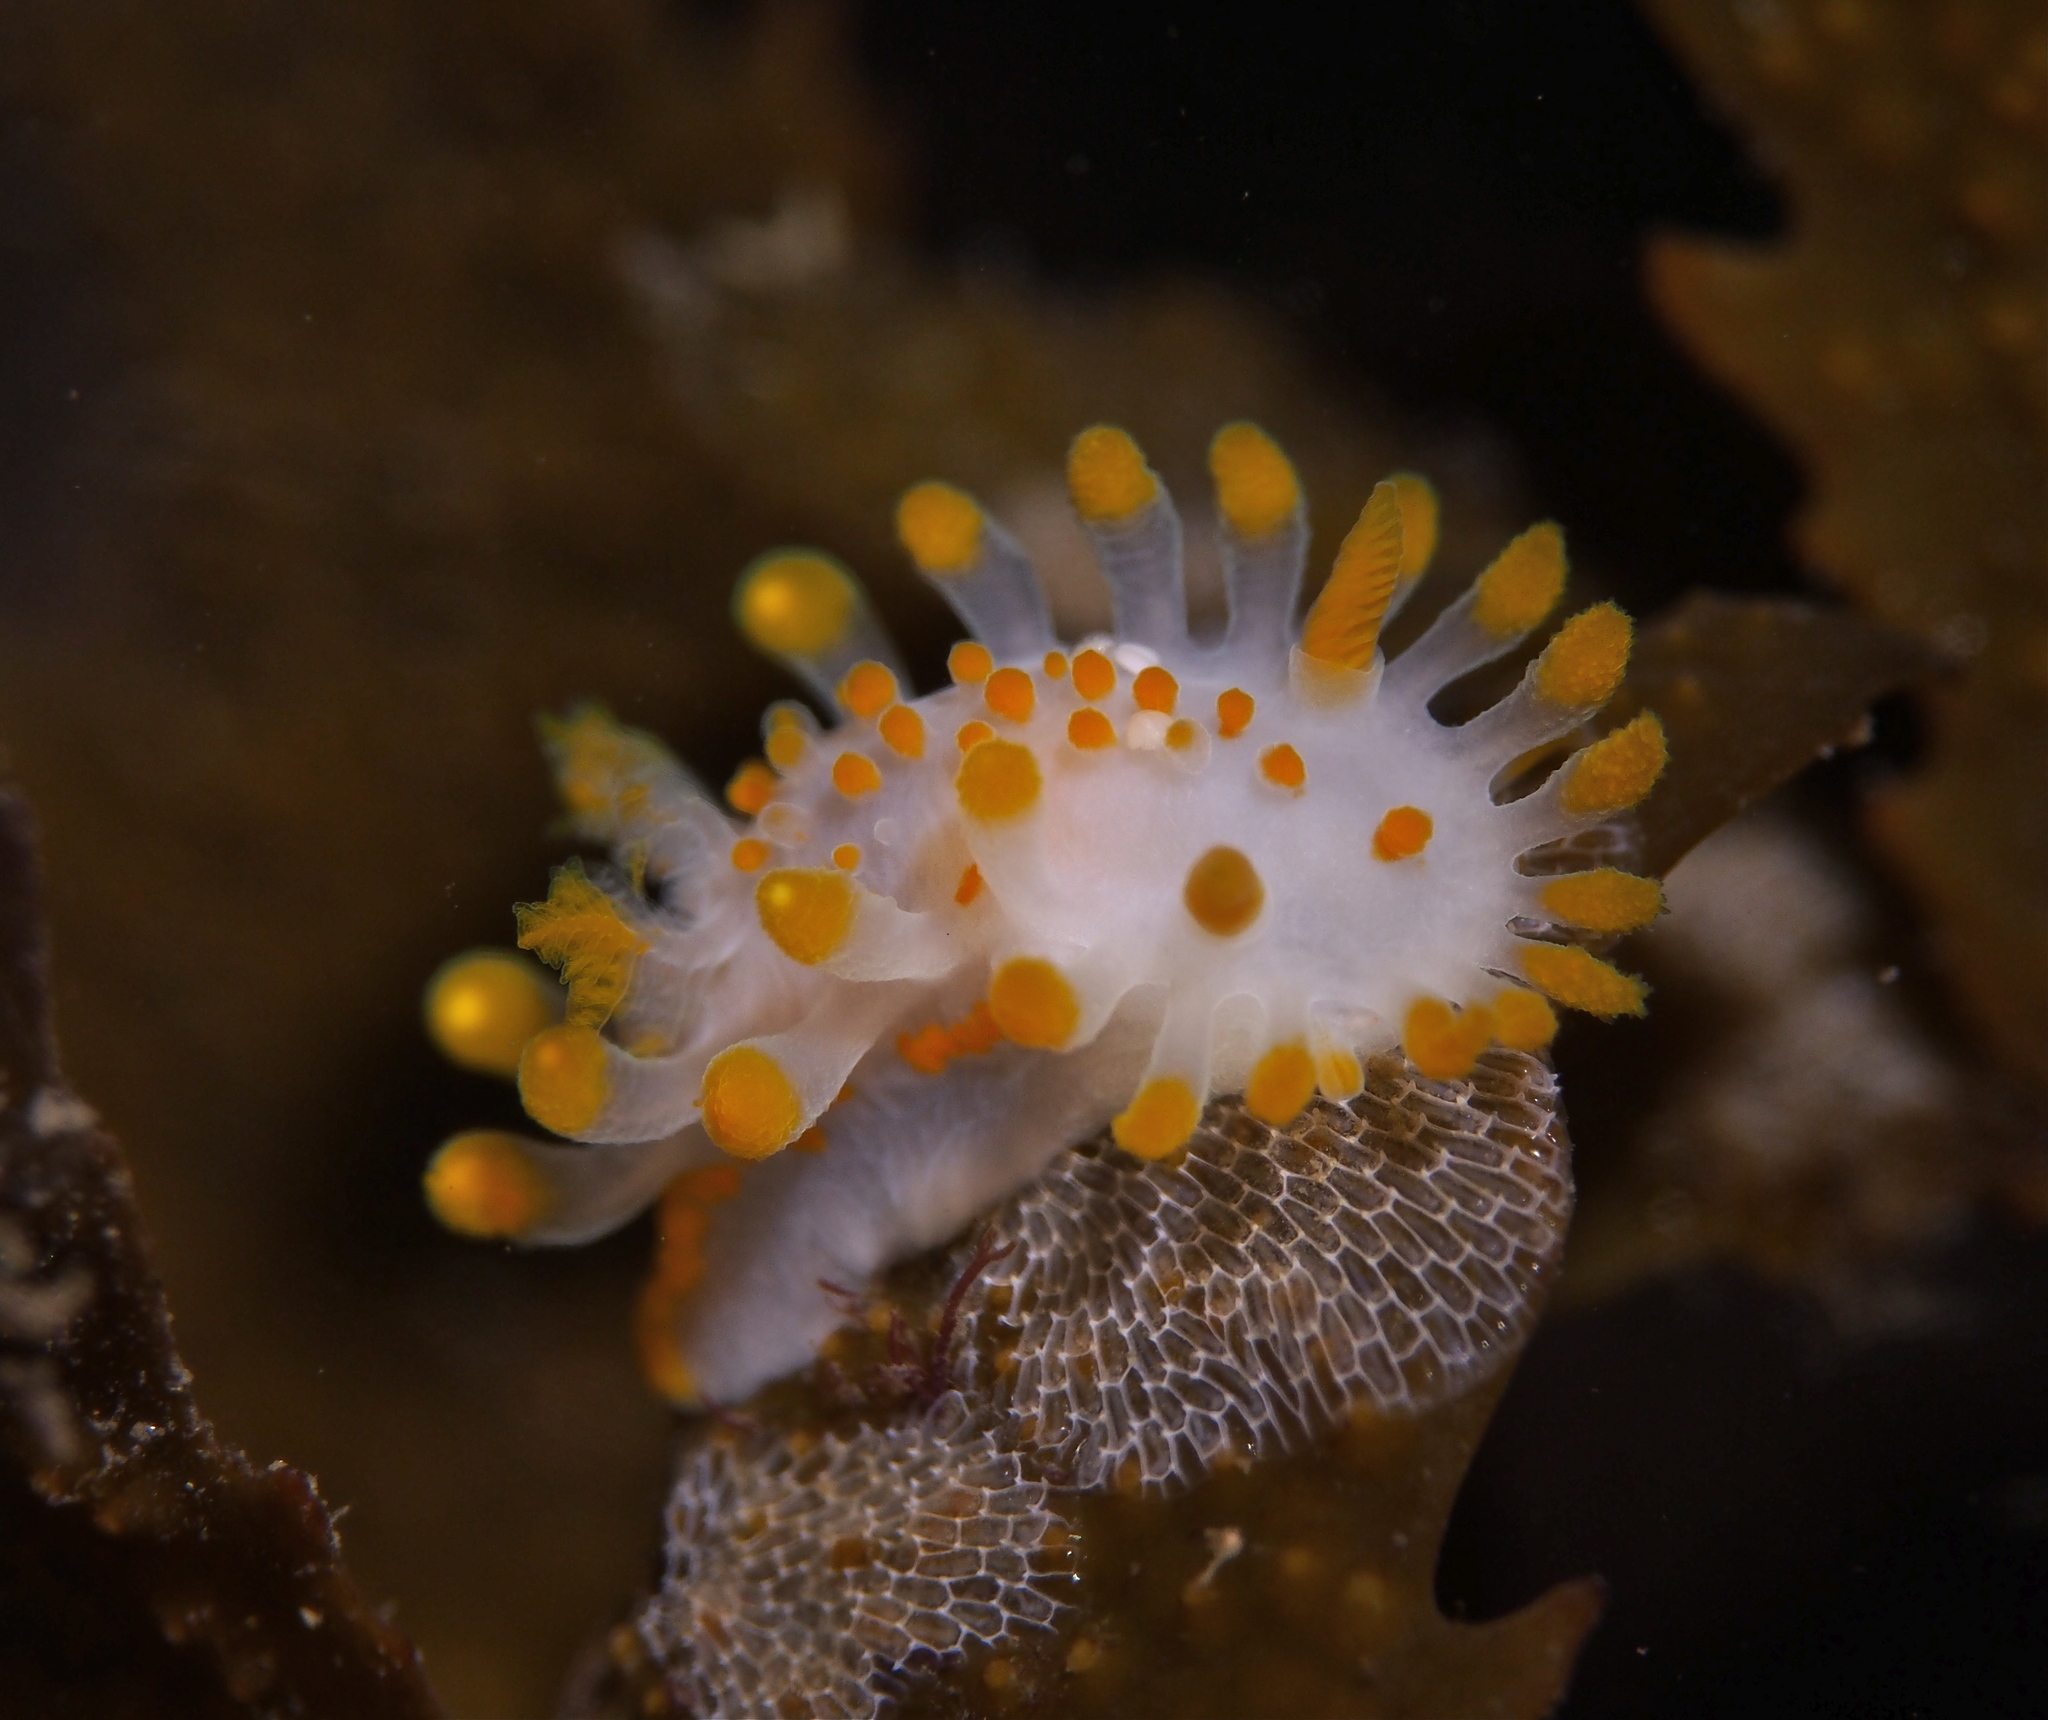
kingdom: Animalia
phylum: Mollusca
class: Gastropoda
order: Nudibranchia
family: Polyceridae
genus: Limacia
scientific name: Limacia clavigera
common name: Orange-clubbed sea slug
